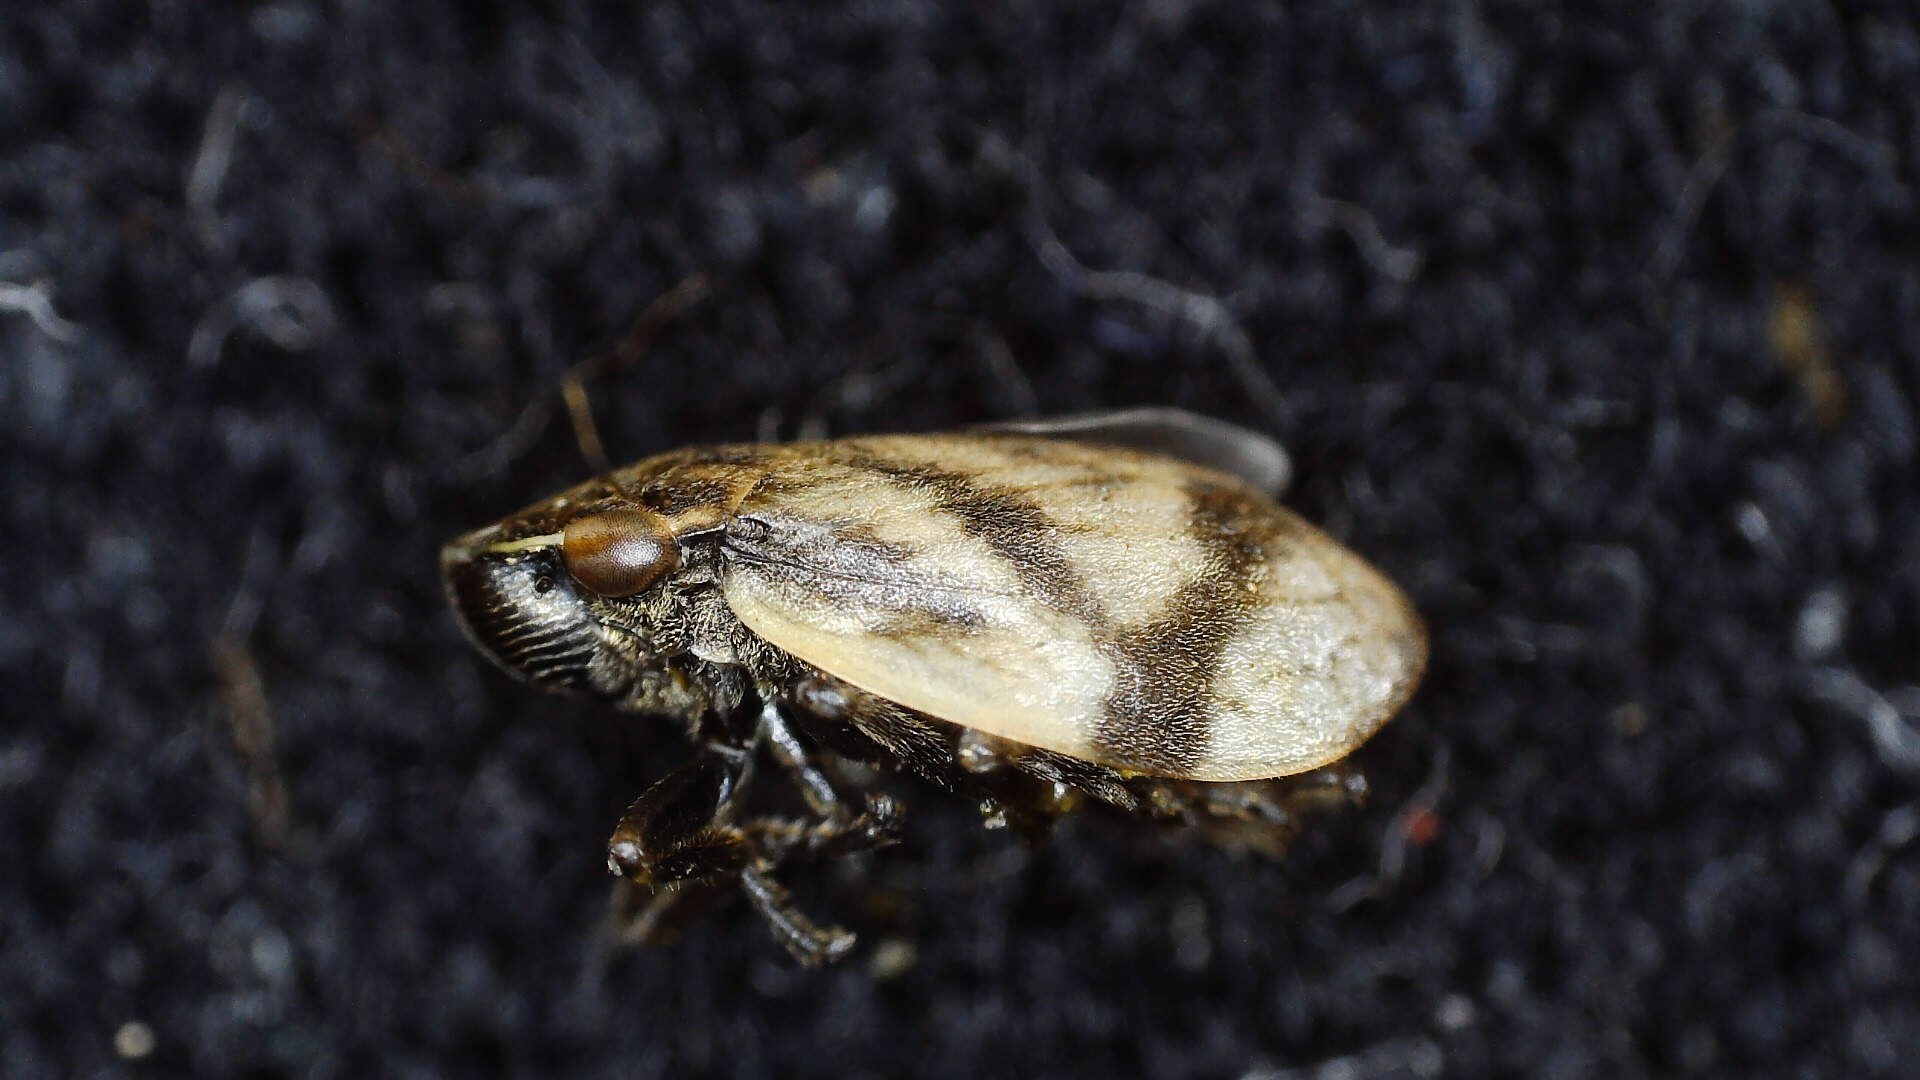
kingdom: Animalia
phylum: Arthropoda
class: Insecta
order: Hemiptera
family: Aphrophoridae
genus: Lepyronia
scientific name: Lepyronia coleoptrata
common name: Leafhopper
